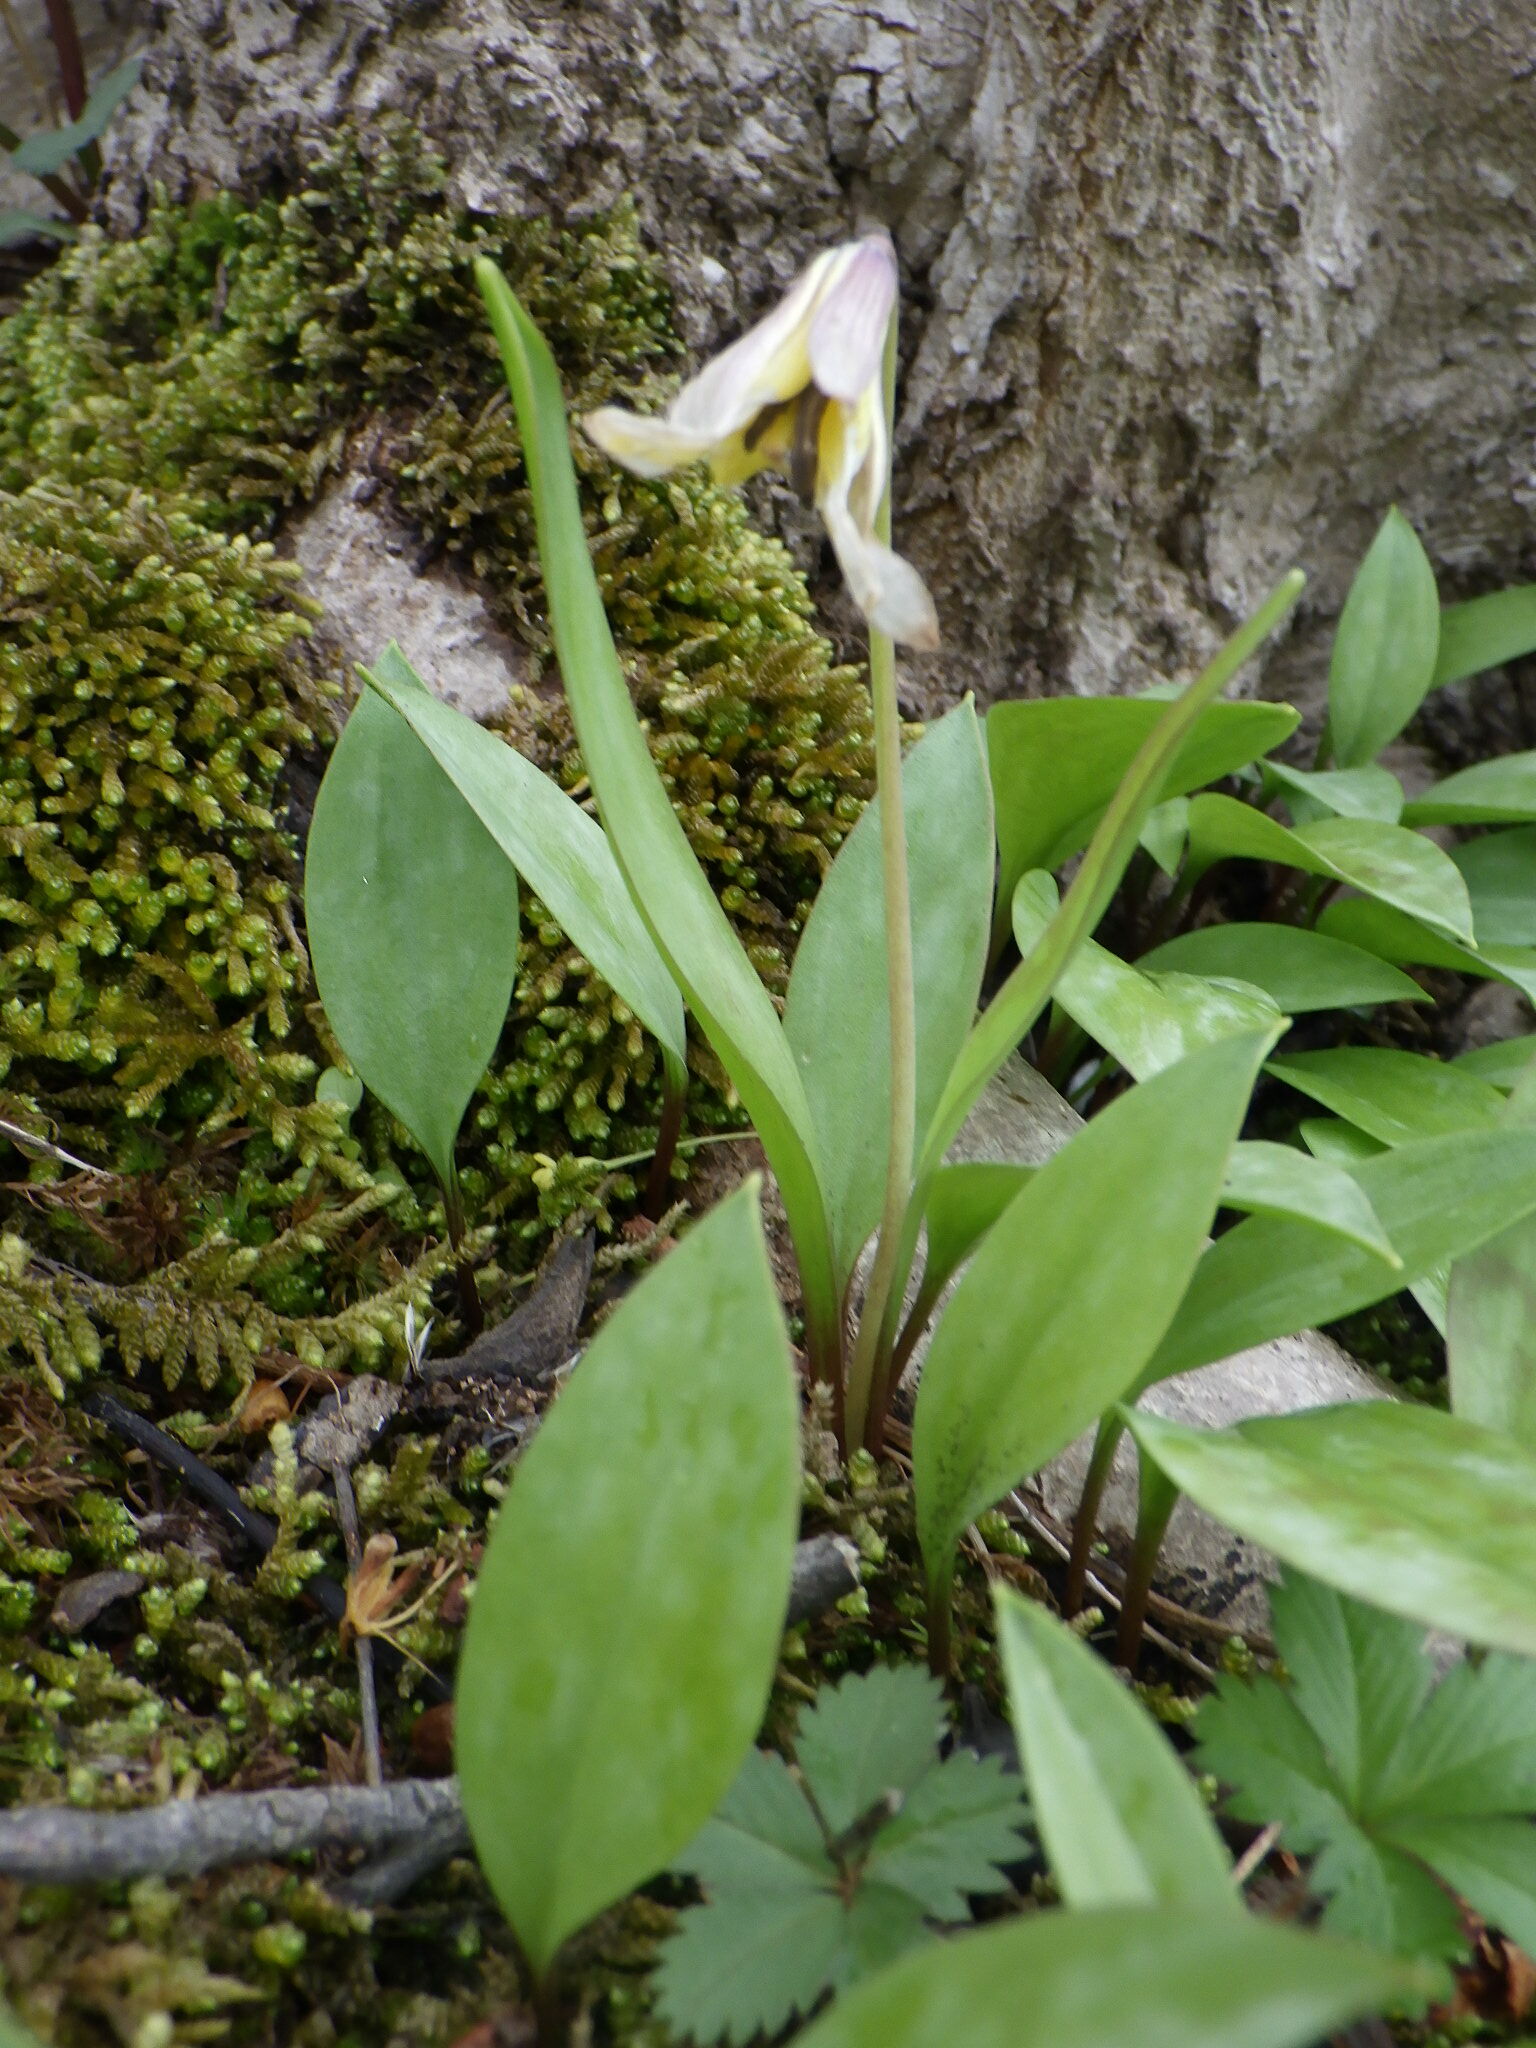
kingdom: Plantae
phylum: Tracheophyta
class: Liliopsida
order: Liliales
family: Liliaceae
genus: Erythronium
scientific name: Erythronium americanum
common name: Yellow adder's-tongue
